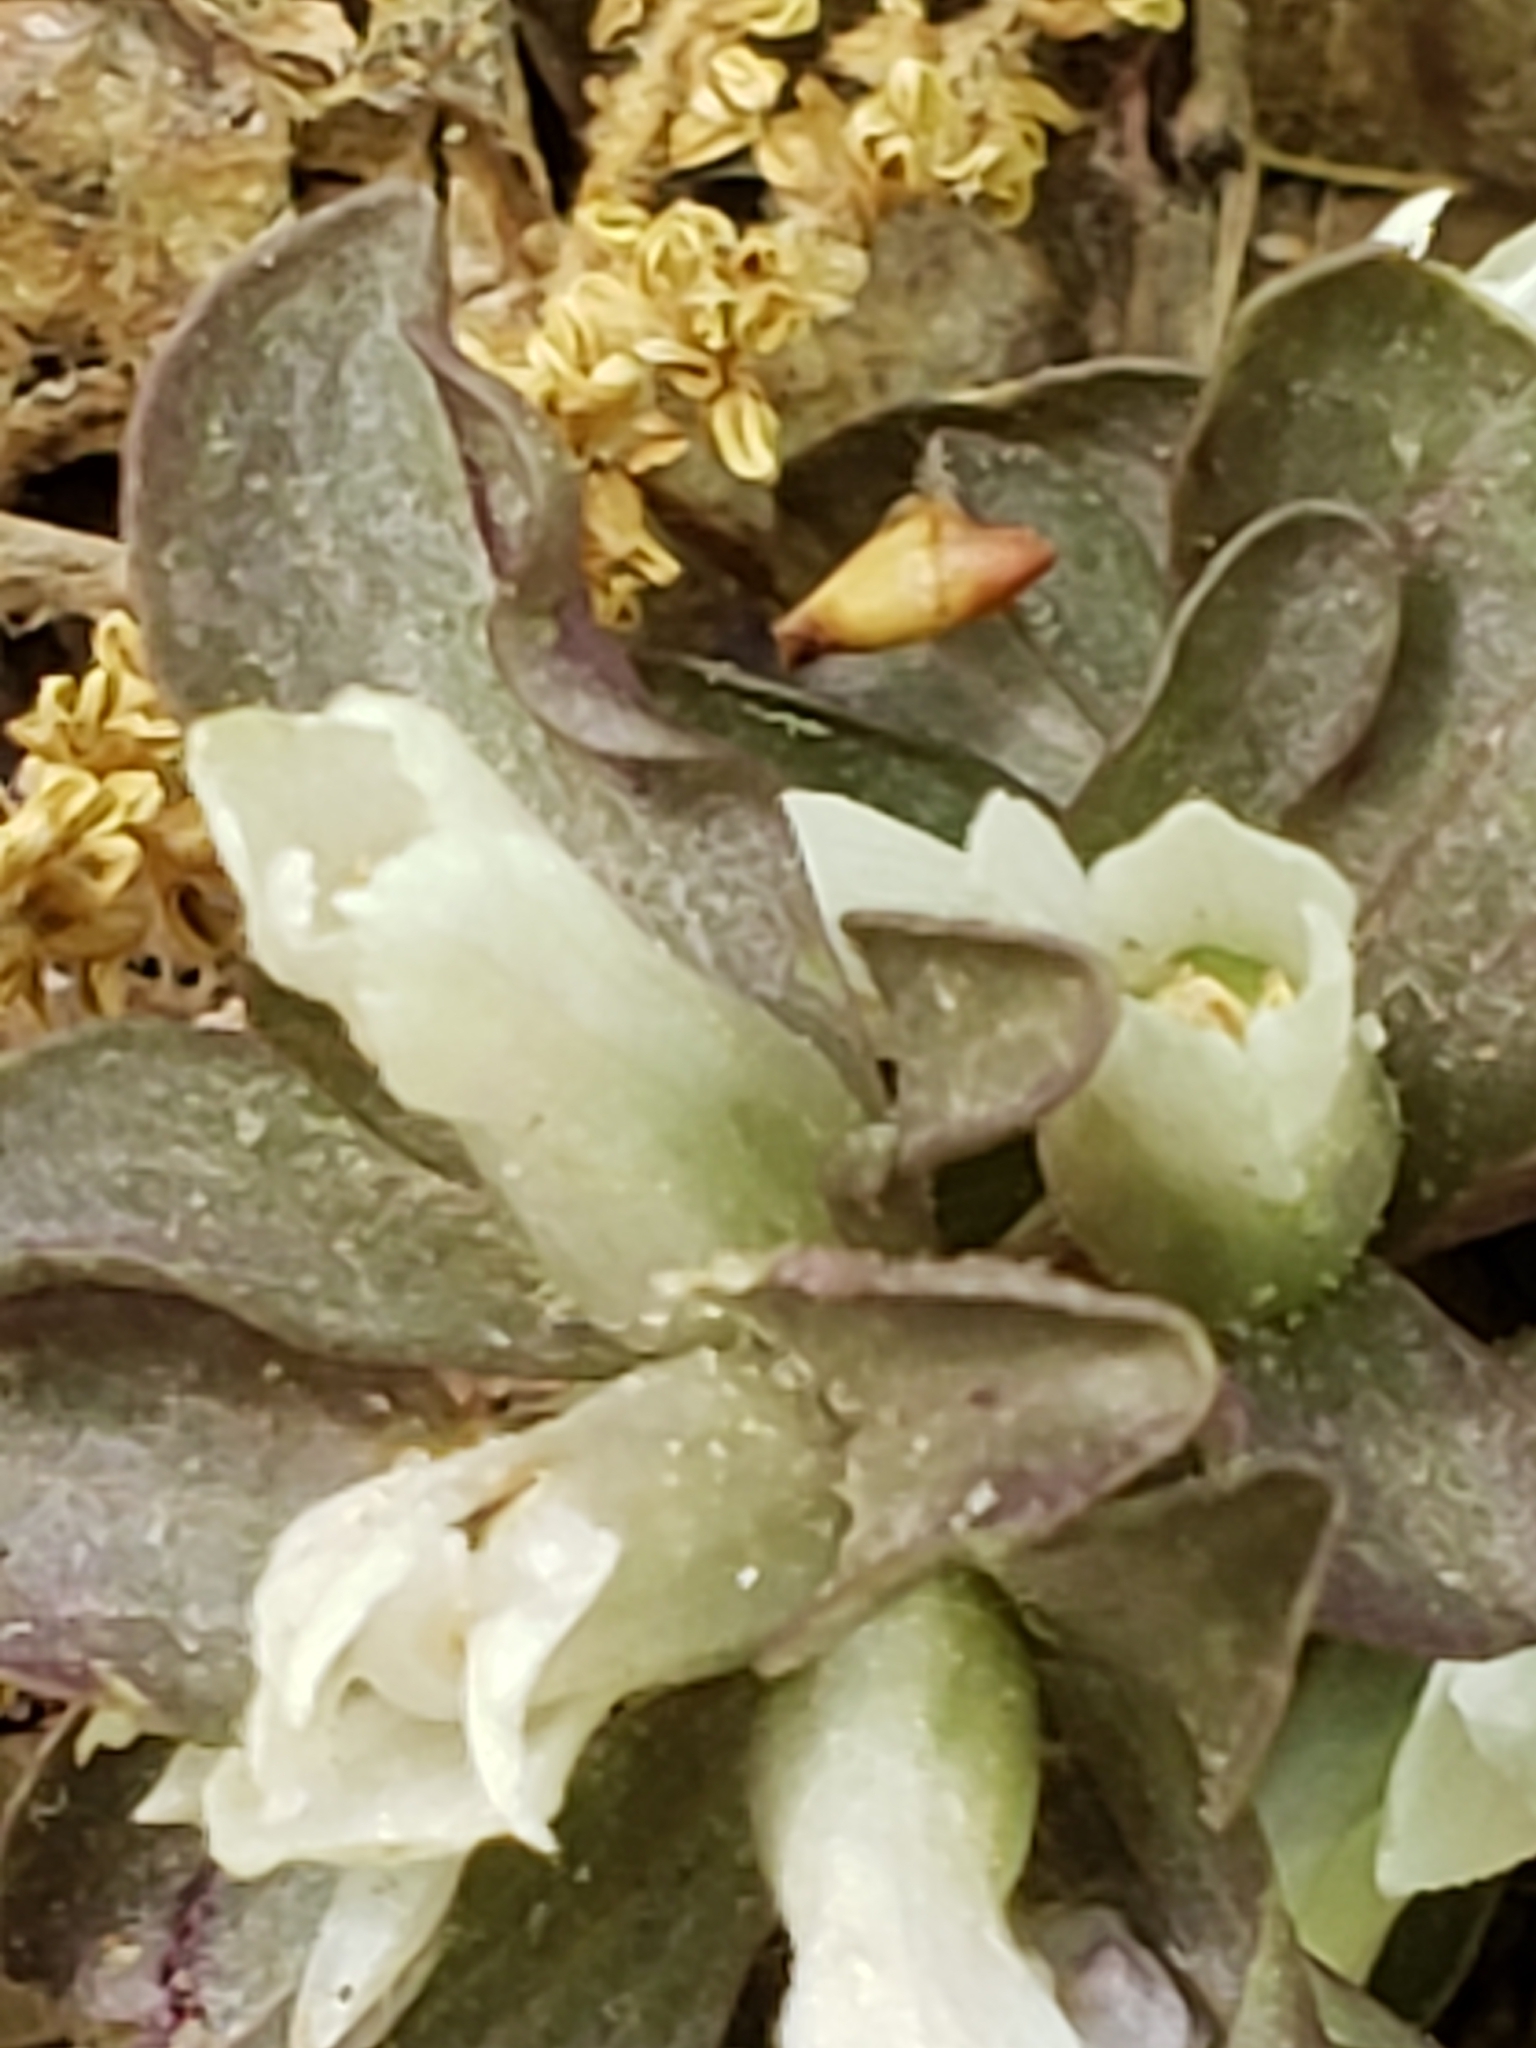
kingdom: Plantae
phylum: Tracheophyta
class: Magnoliopsida
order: Gentianales
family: Gentianaceae
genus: Obolaria
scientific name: Obolaria virginica
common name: Pennywort
